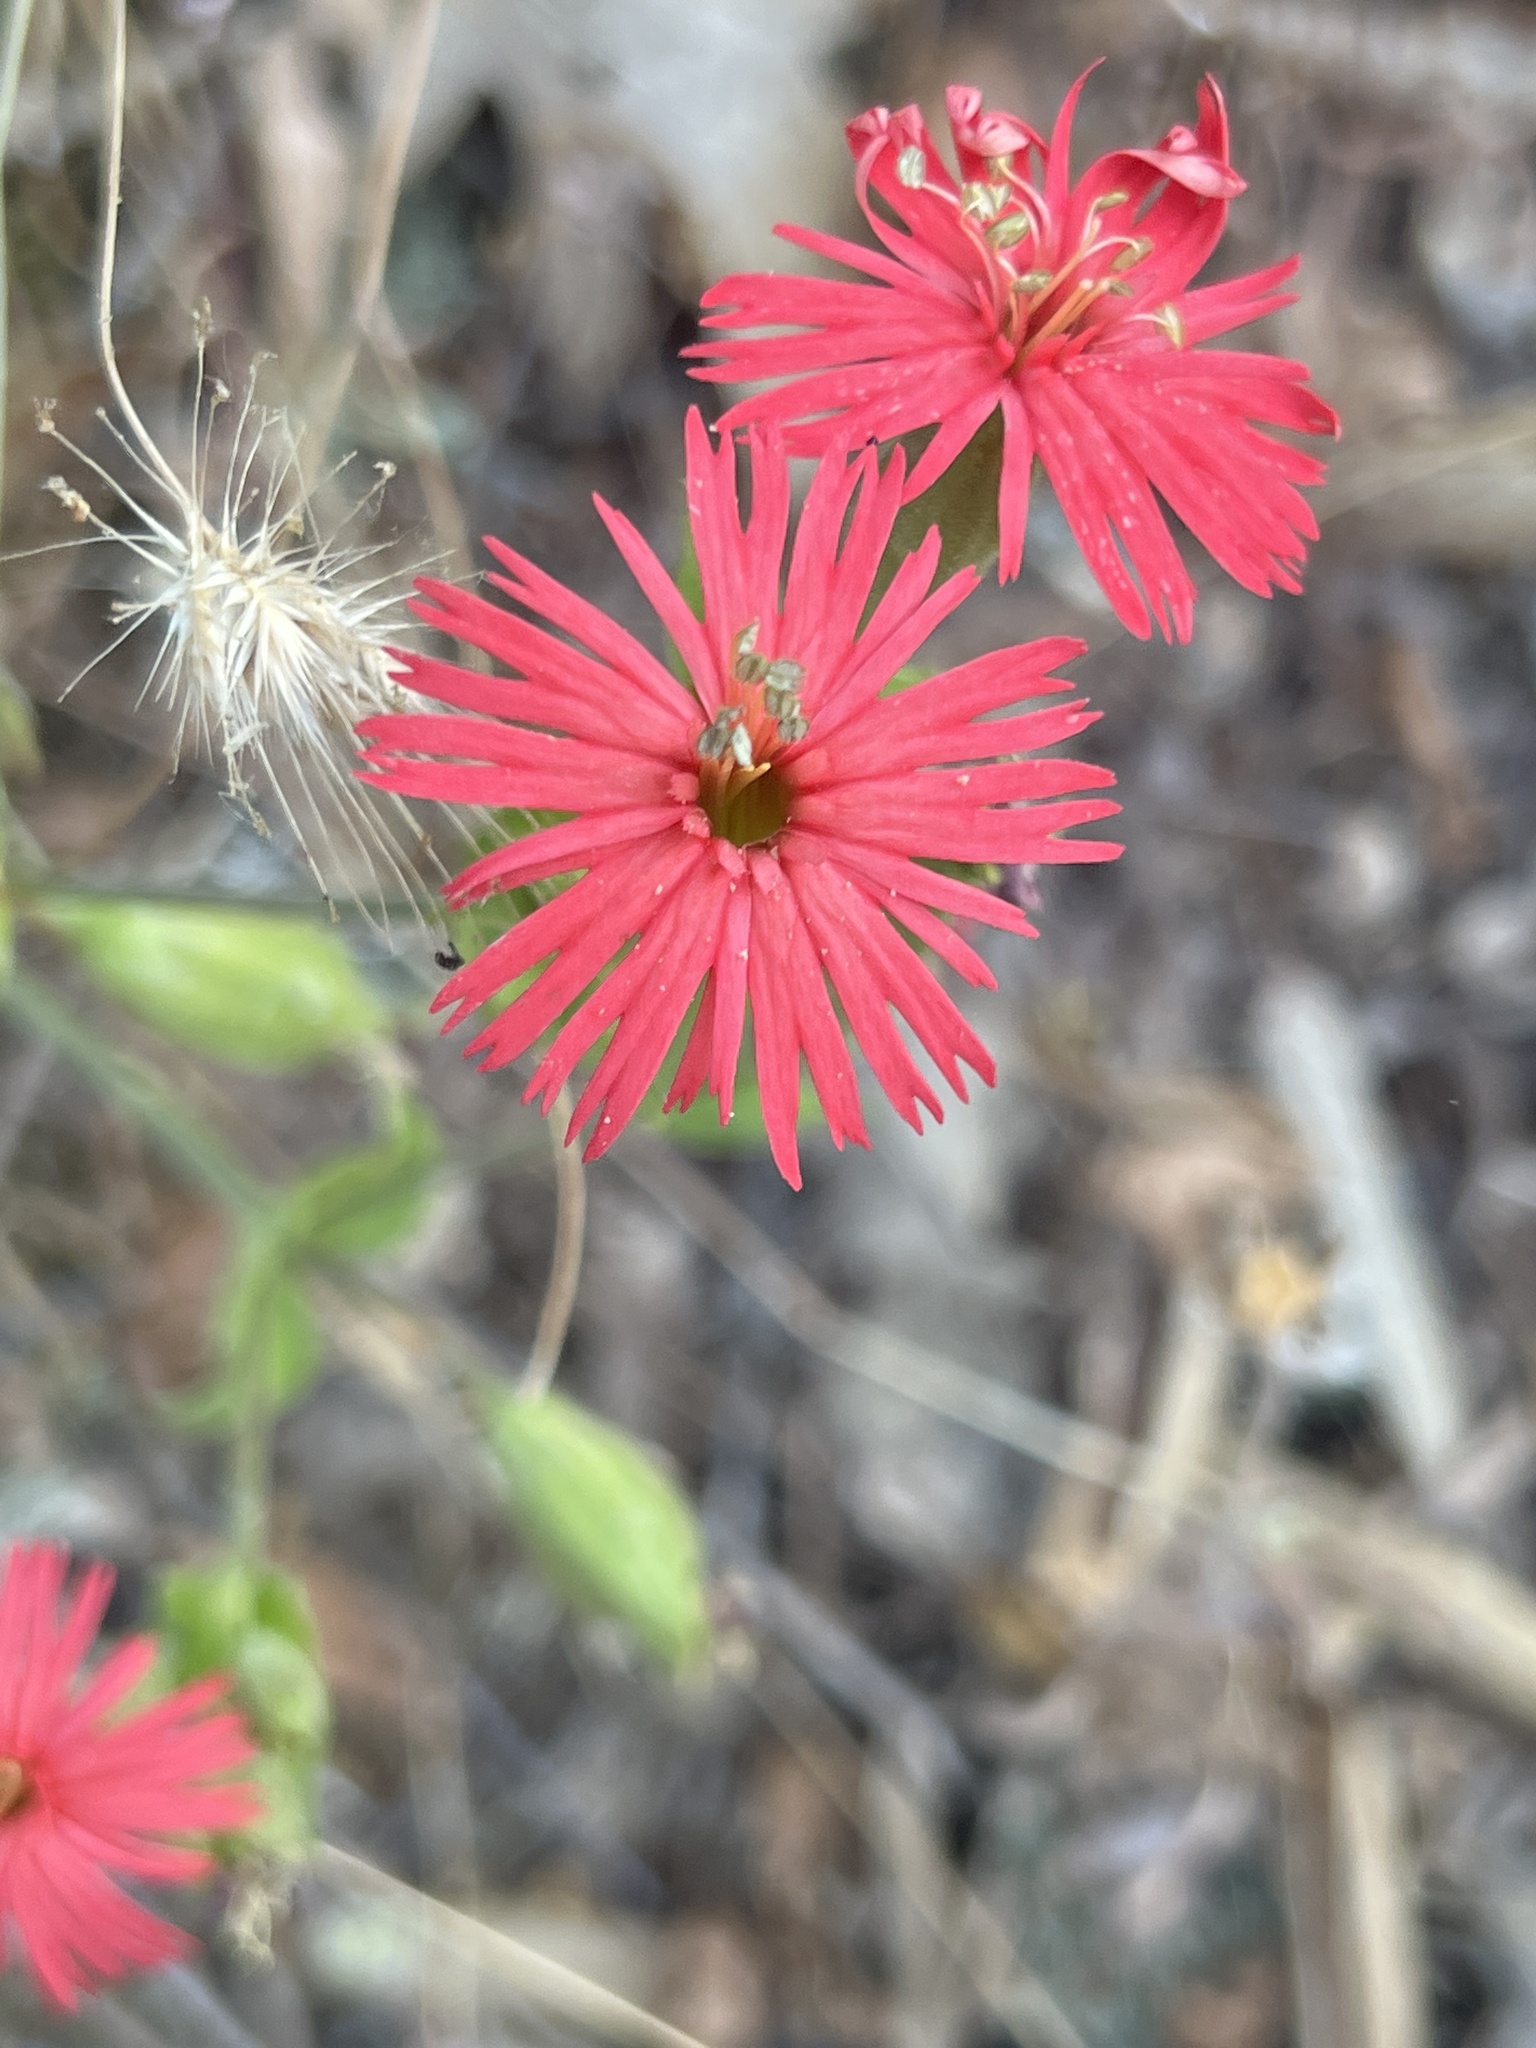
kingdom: Plantae
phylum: Tracheophyta
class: Magnoliopsida
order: Caryophyllales
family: Caryophyllaceae
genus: Silene
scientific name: Silene laciniata
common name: Indian-pink
